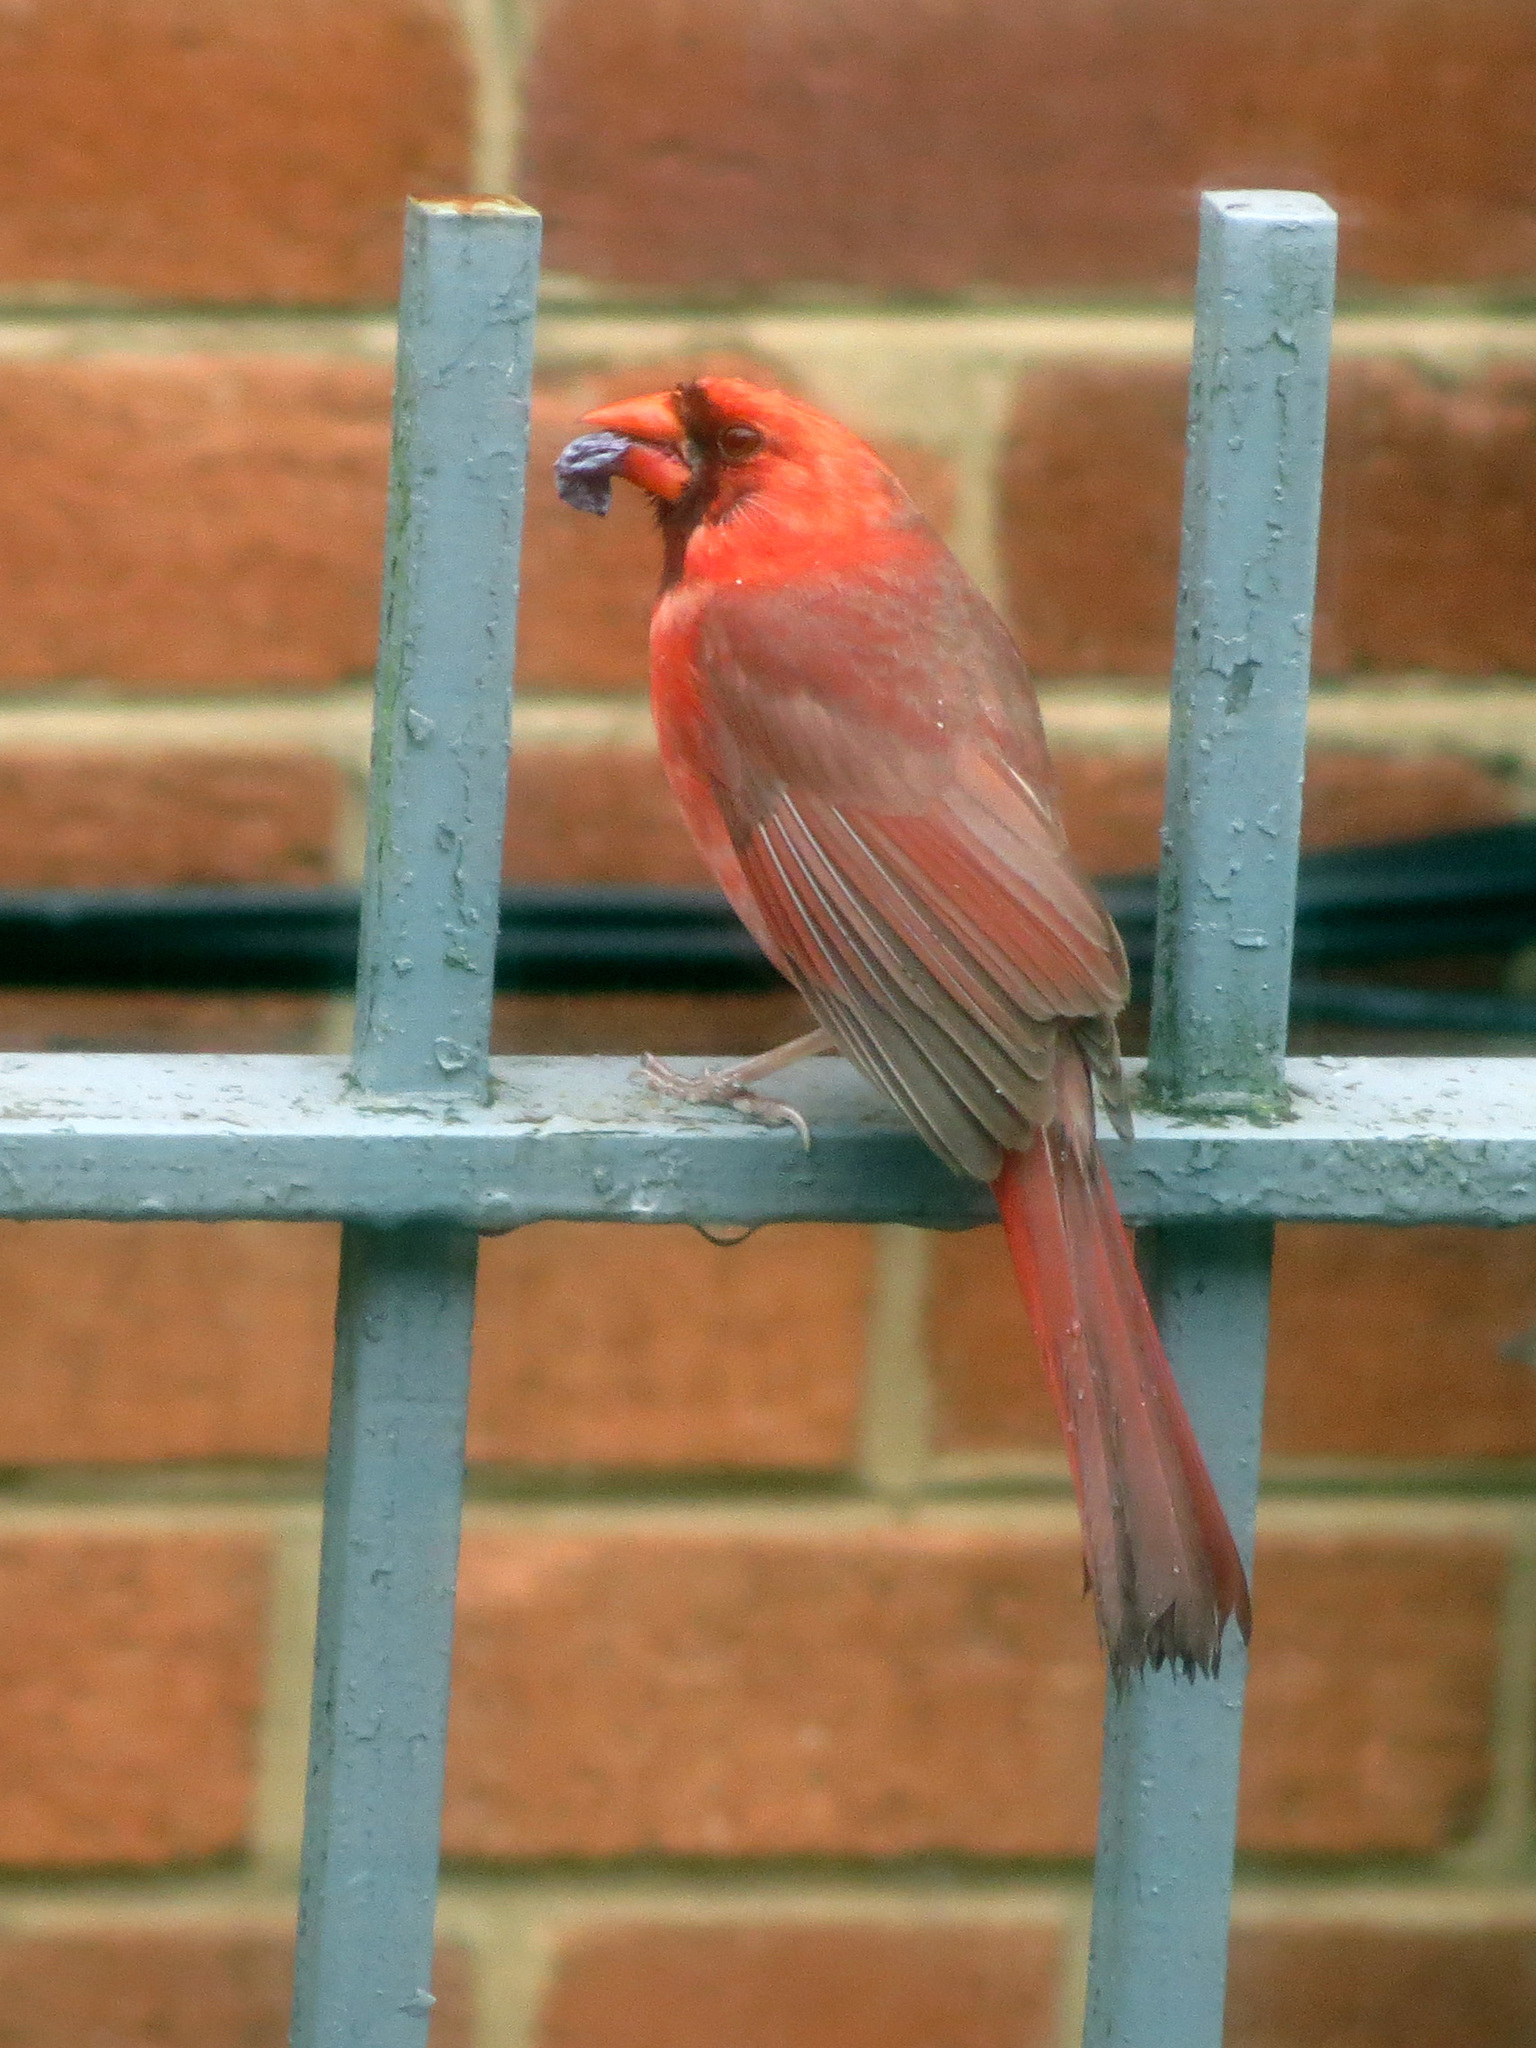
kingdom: Animalia
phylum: Chordata
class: Aves
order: Passeriformes
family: Cardinalidae
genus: Cardinalis
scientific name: Cardinalis cardinalis
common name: Northern cardinal
